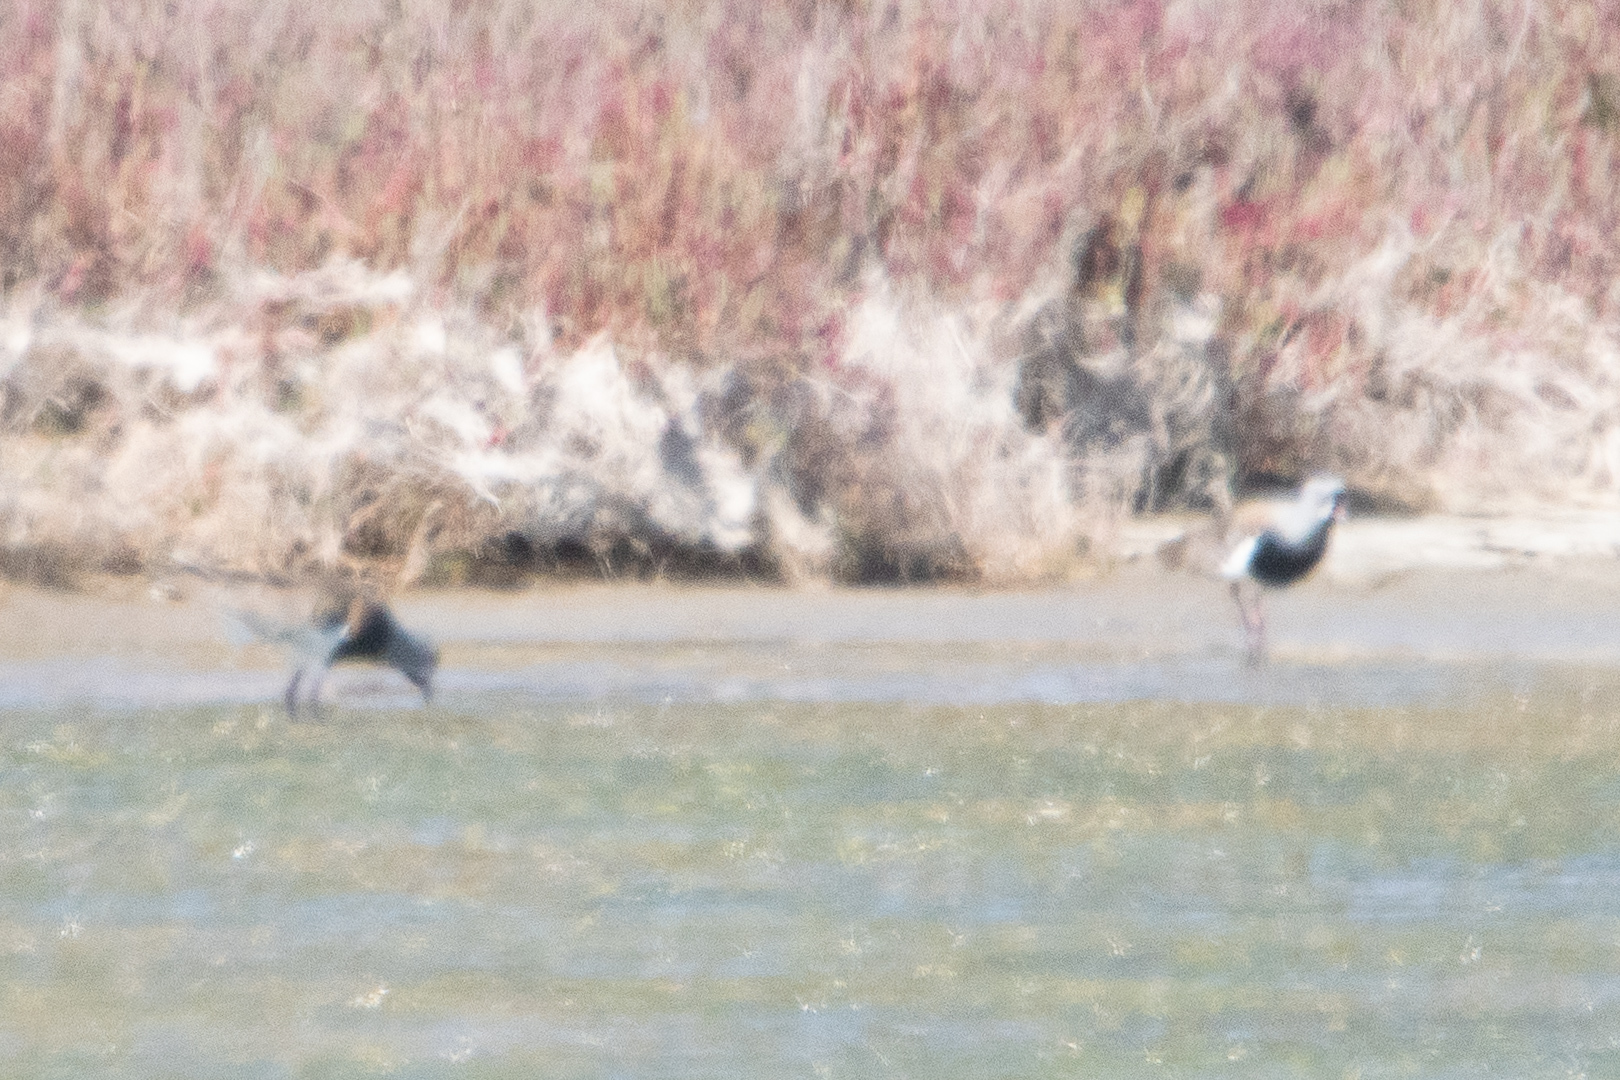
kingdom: Animalia
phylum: Chordata
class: Aves
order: Charadriiformes
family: Charadriidae
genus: Vanellus
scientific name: Vanellus chilensis
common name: Southern lapwing
